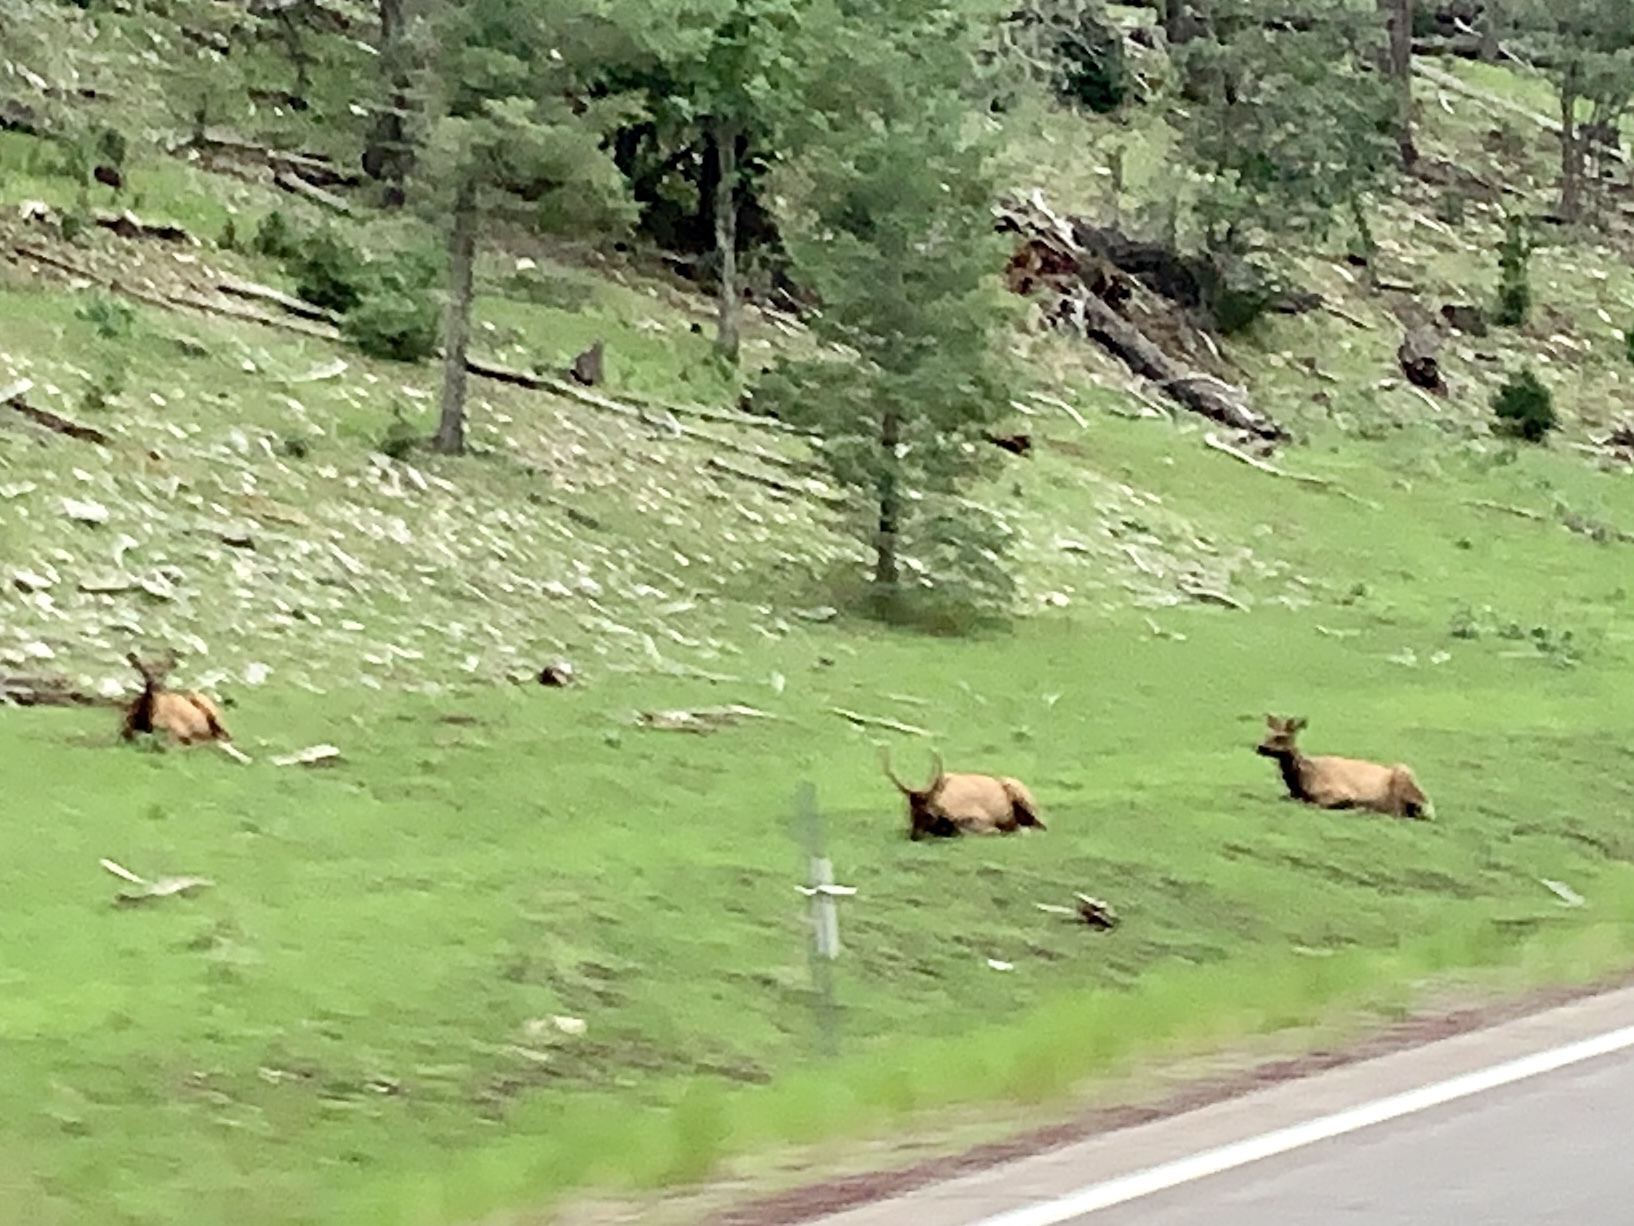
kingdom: Animalia
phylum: Chordata
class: Mammalia
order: Artiodactyla
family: Cervidae
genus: Cervus
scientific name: Cervus elaphus
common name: Red deer
